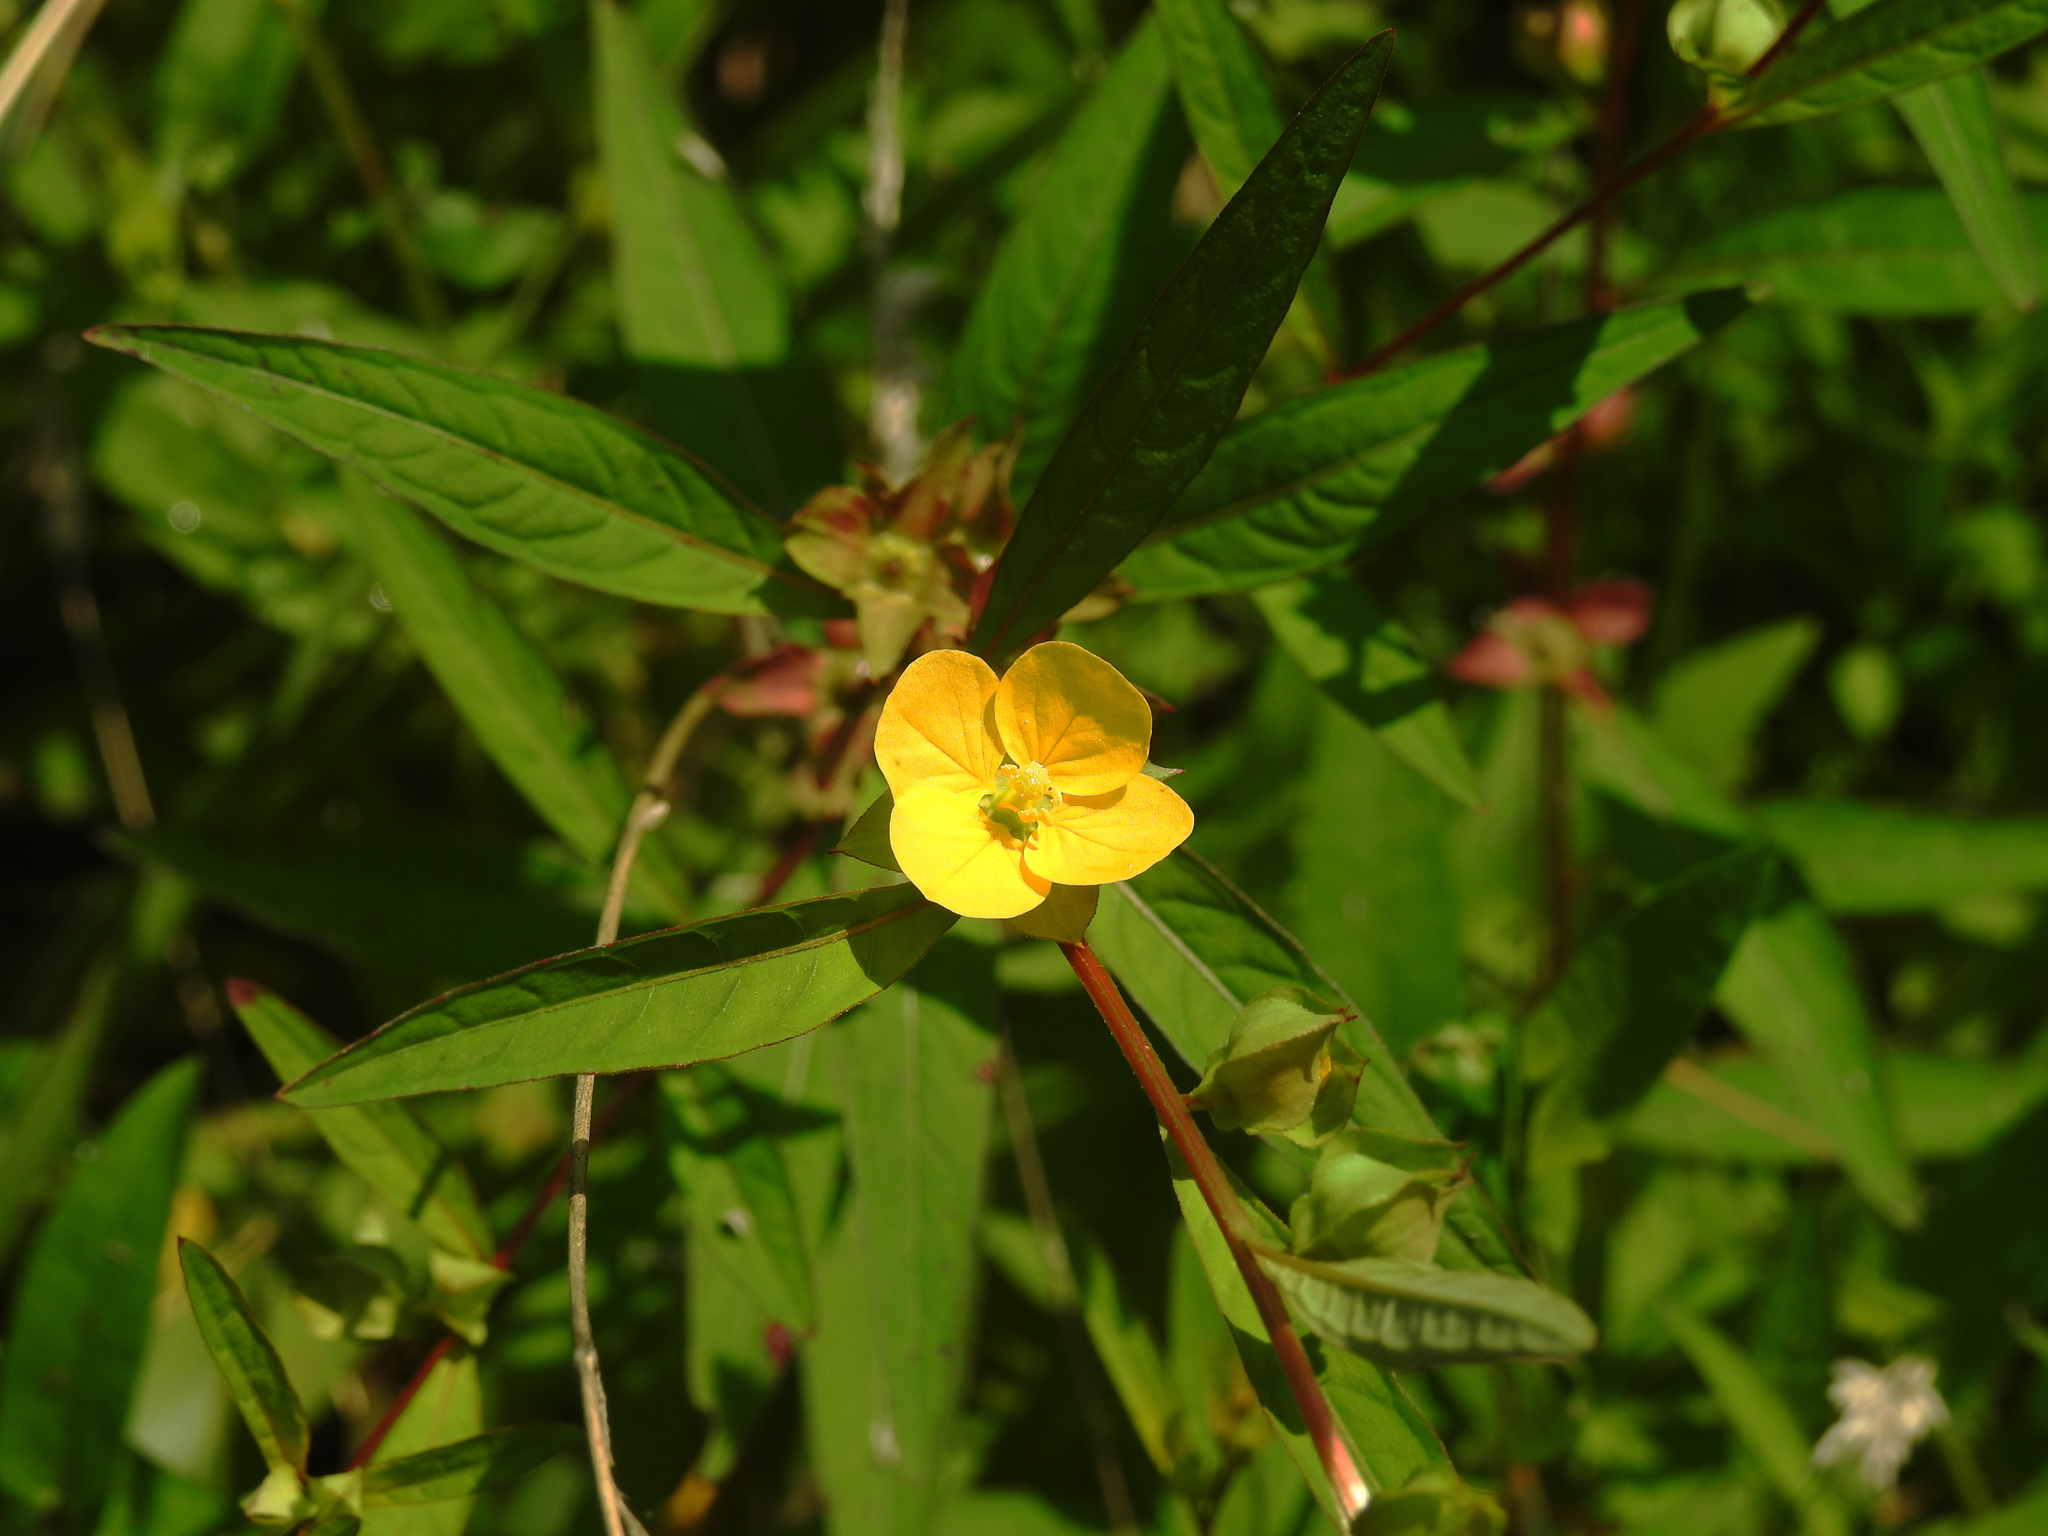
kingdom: Plantae
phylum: Tracheophyta
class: Magnoliopsida
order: Myrtales
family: Onagraceae
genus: Ludwigia
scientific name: Ludwigia alternifolia
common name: Rattlebox
